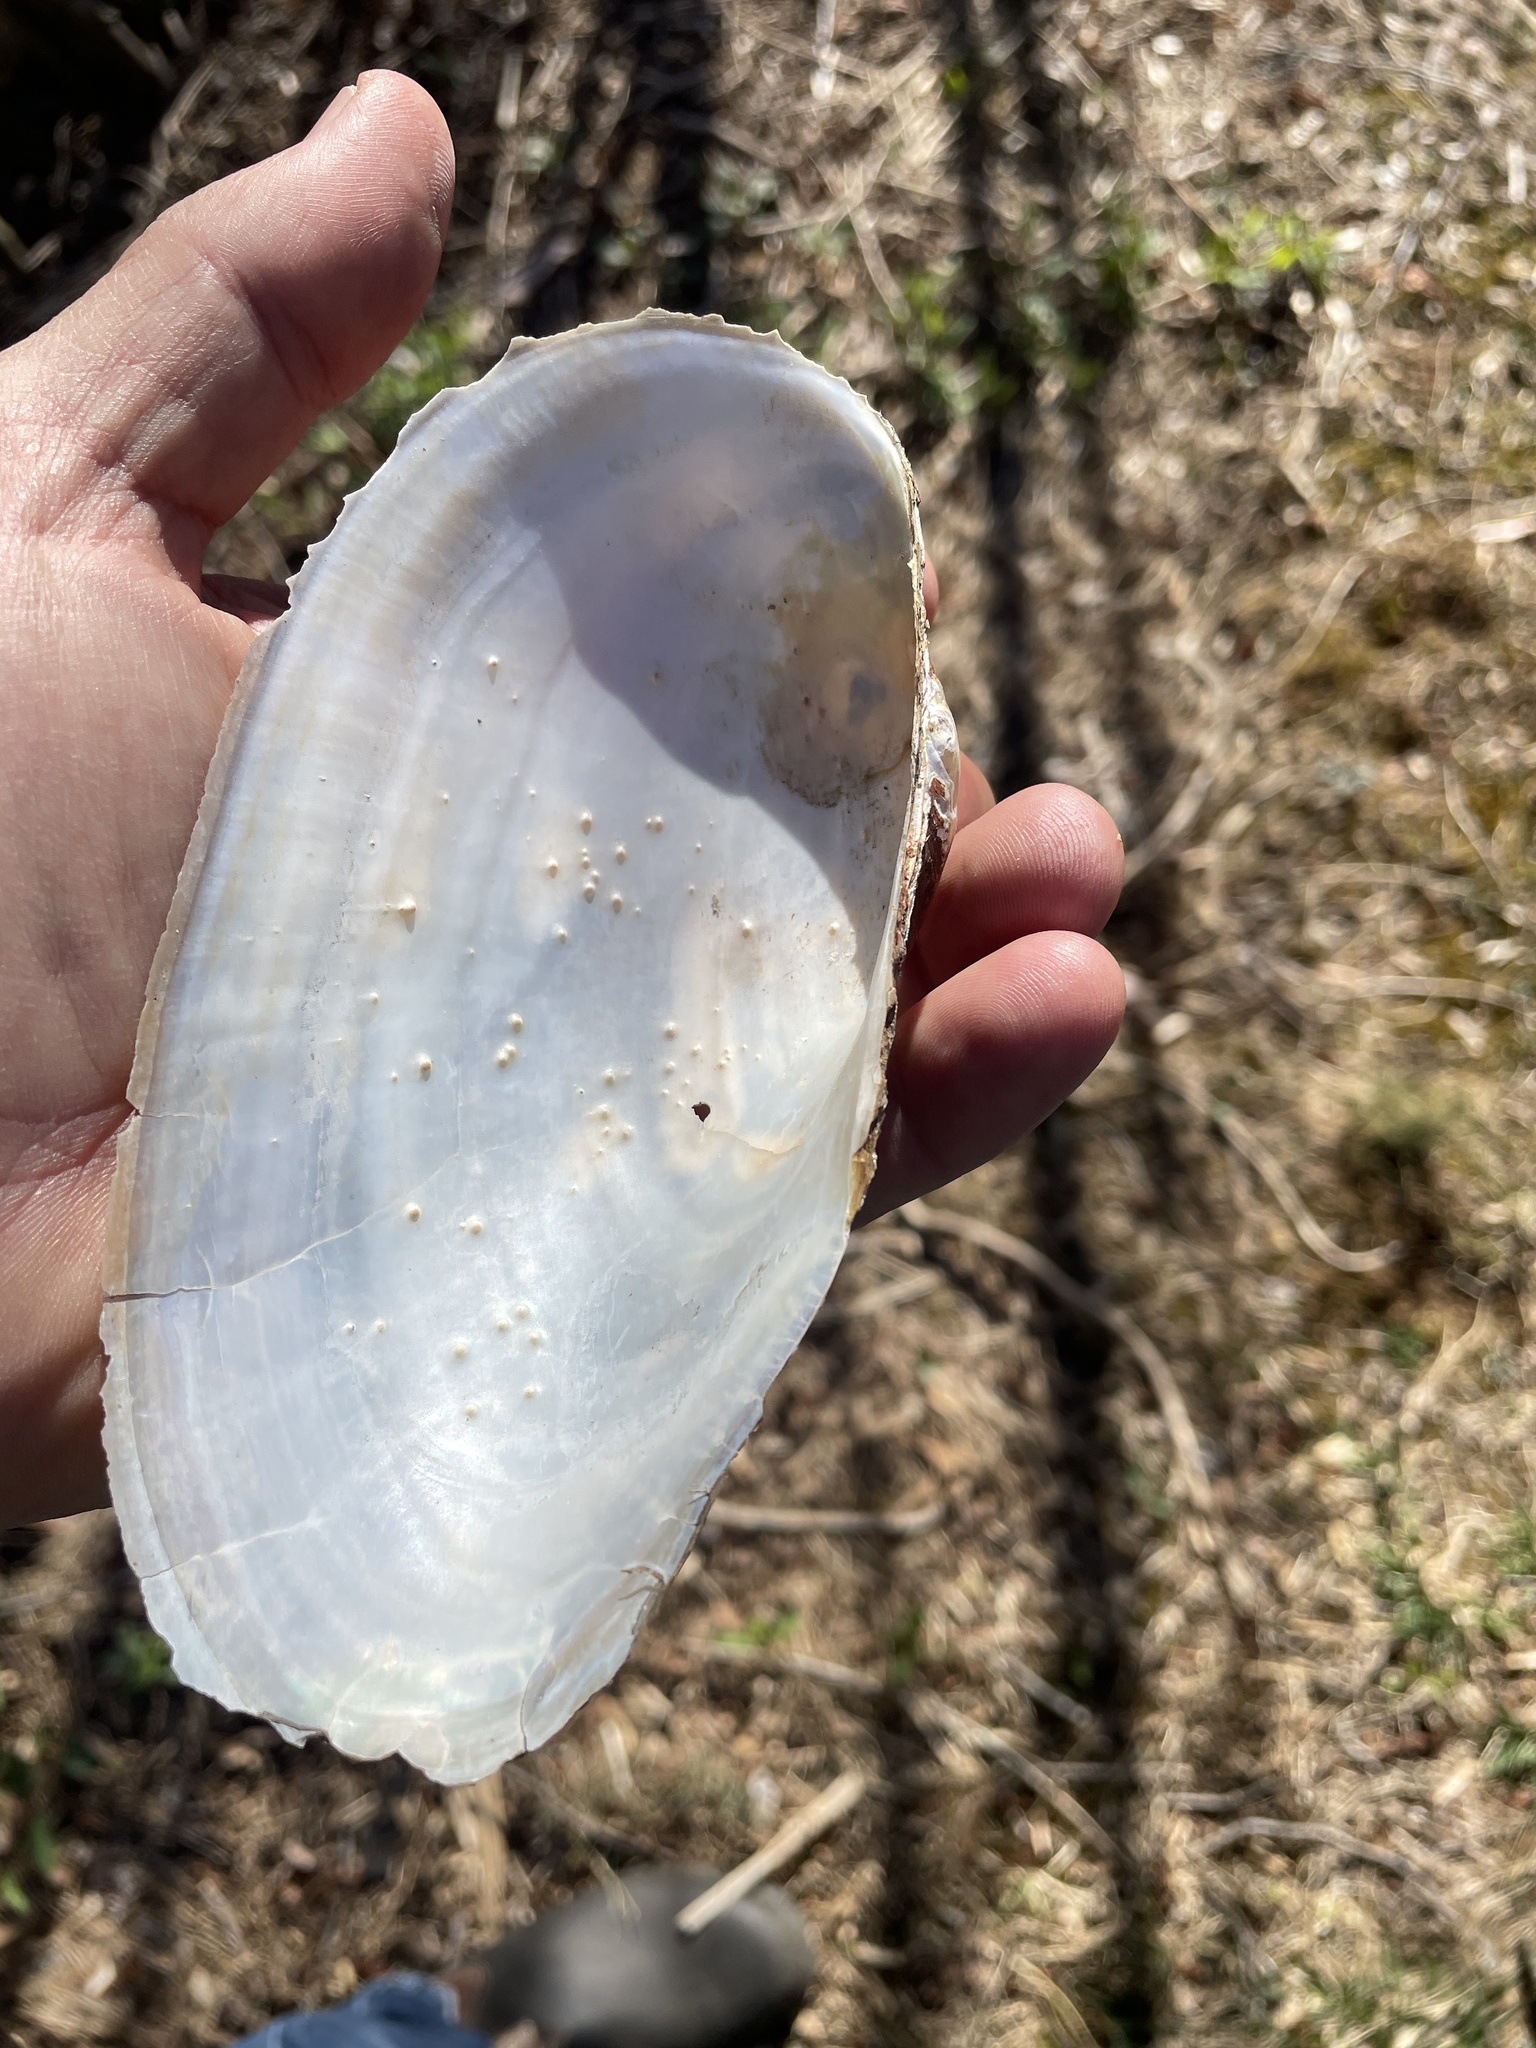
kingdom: Animalia
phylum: Mollusca
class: Bivalvia
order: Unionida
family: Unionidae
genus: Pyganodon
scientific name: Pyganodon cataracta
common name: Eastern floater
